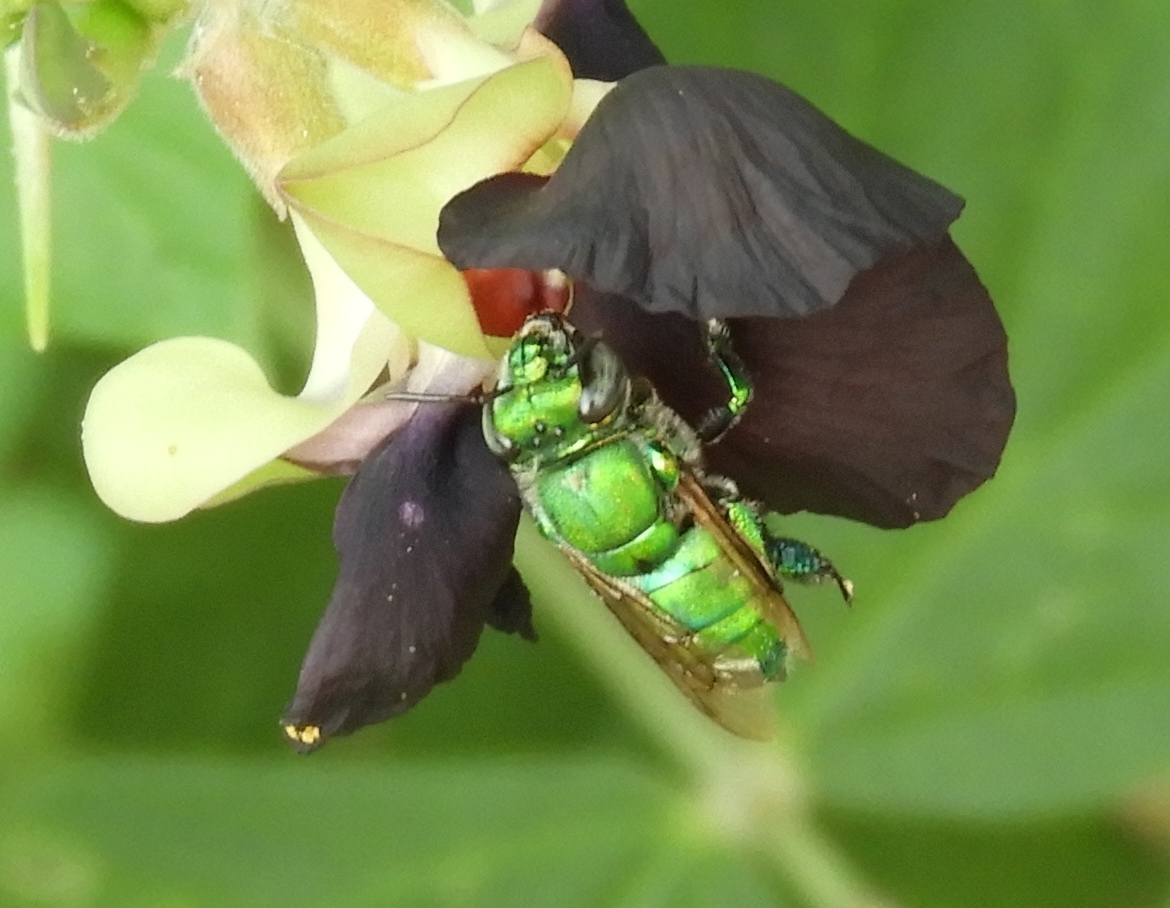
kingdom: Animalia
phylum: Arthropoda
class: Insecta
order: Hymenoptera
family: Apidae
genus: Euglossa
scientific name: Euglossa
